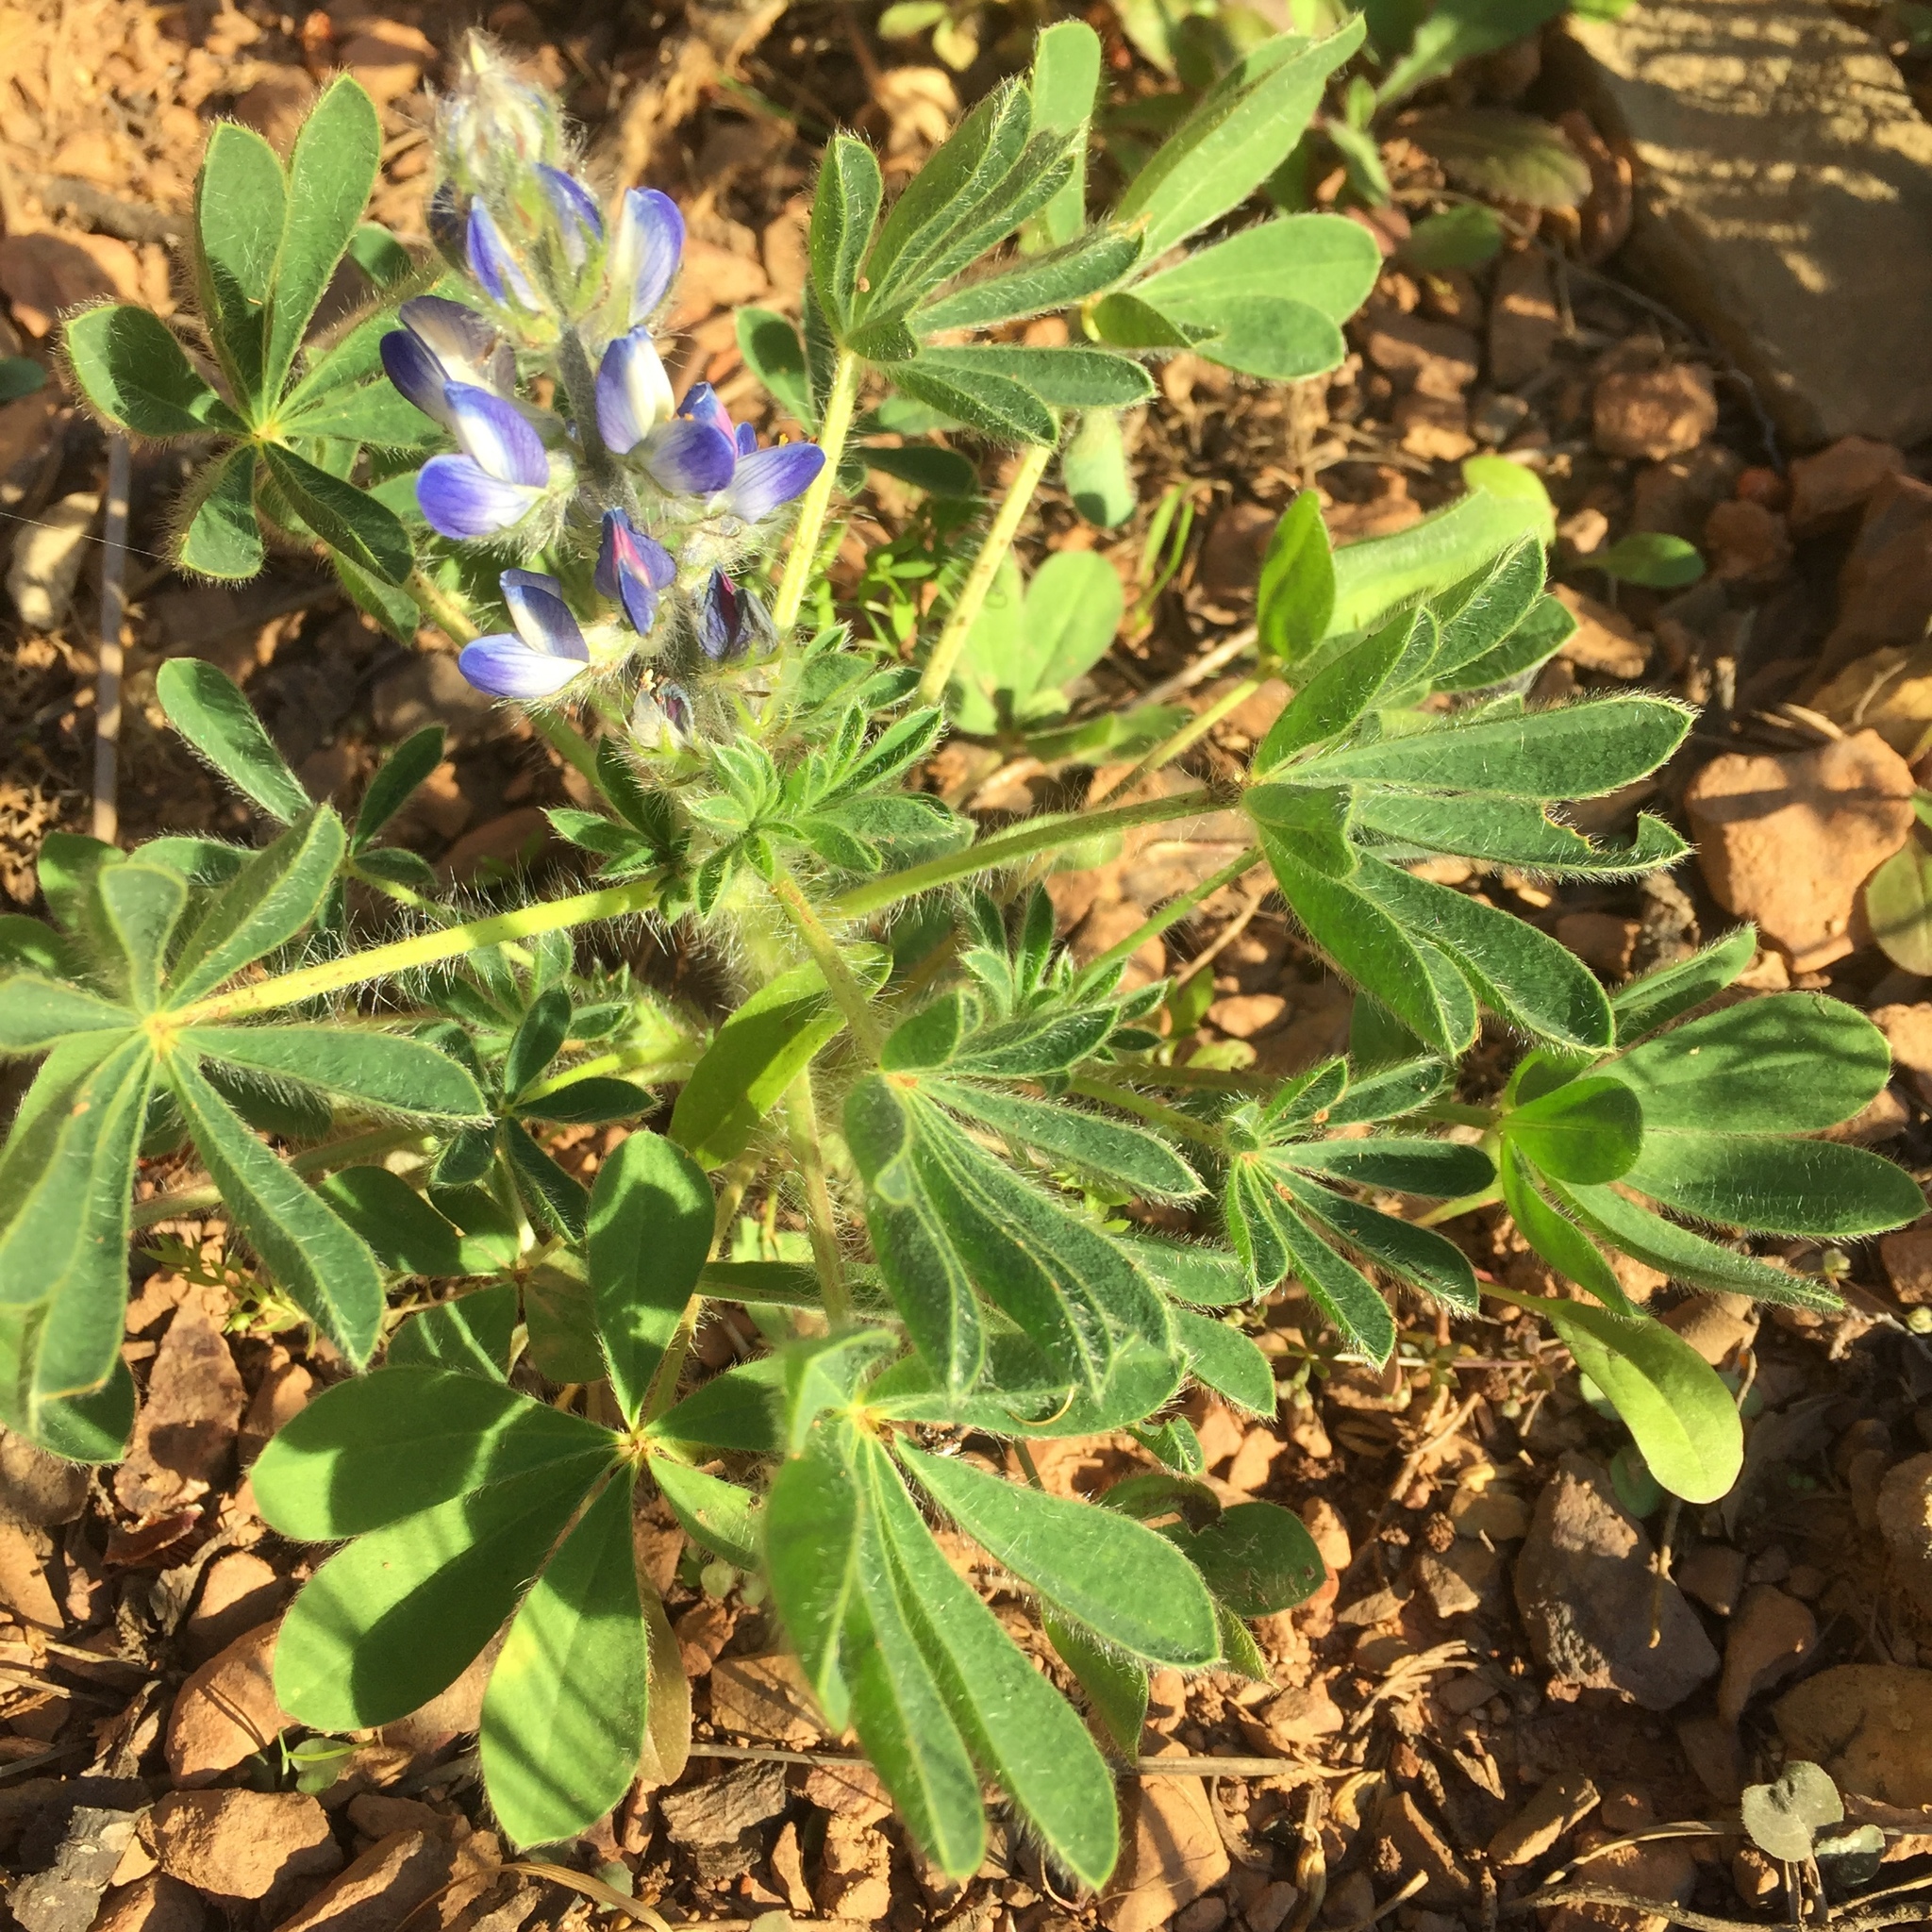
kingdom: Plantae
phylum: Tracheophyta
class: Magnoliopsida
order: Fabales
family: Fabaceae
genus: Lupinus
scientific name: Lupinus gussoneanus
